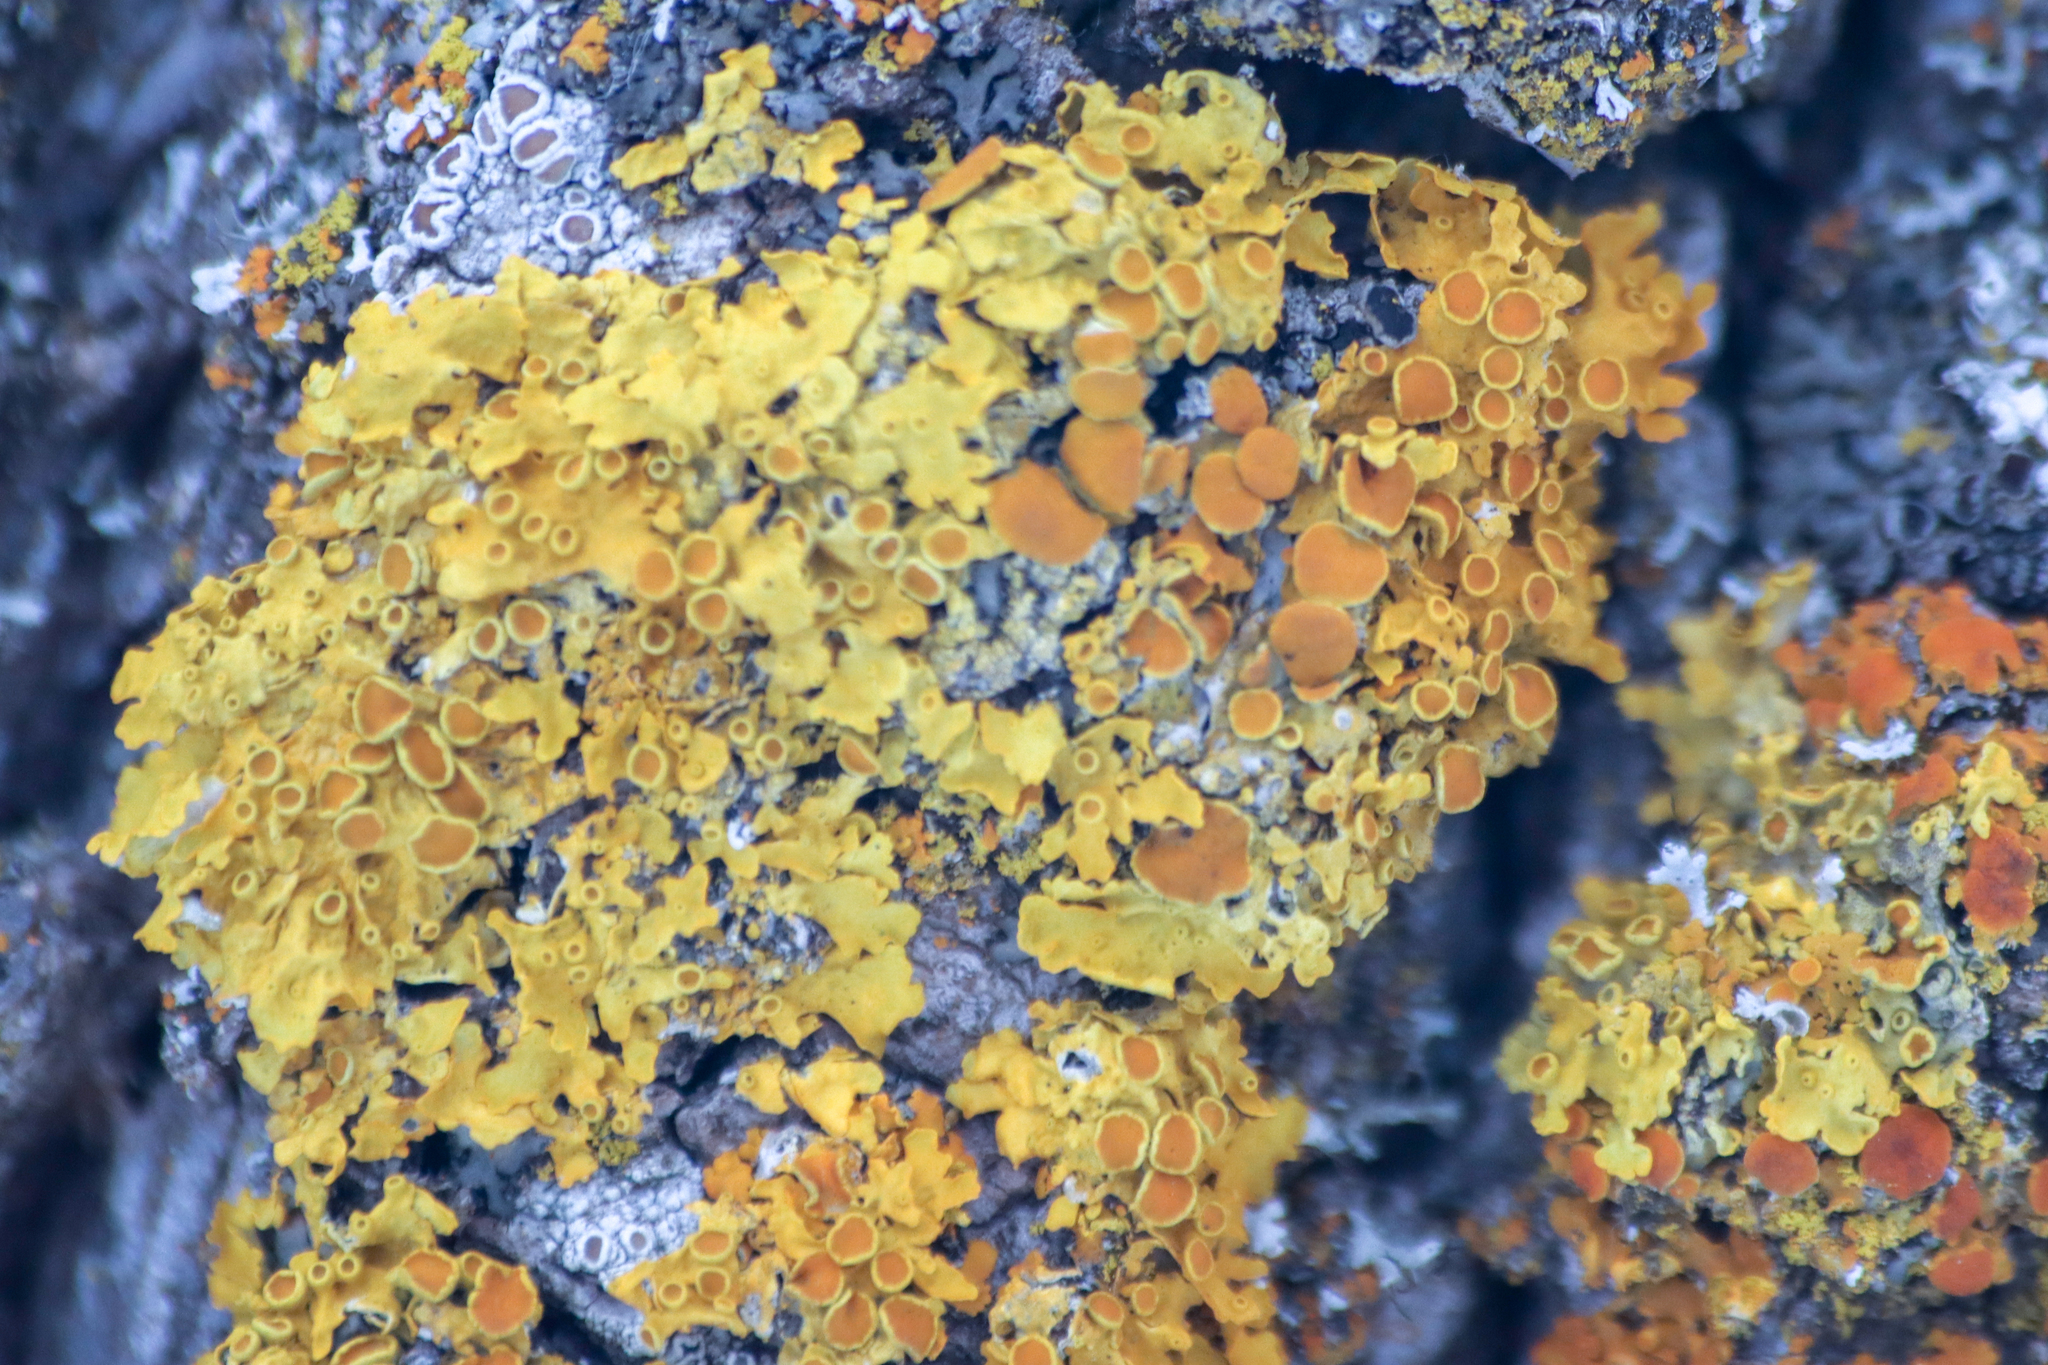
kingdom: Fungi
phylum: Ascomycota
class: Lecanoromycetes
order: Teloschistales
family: Teloschistaceae
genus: Xanthoria
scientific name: Xanthoria parietina
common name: Common orange lichen
